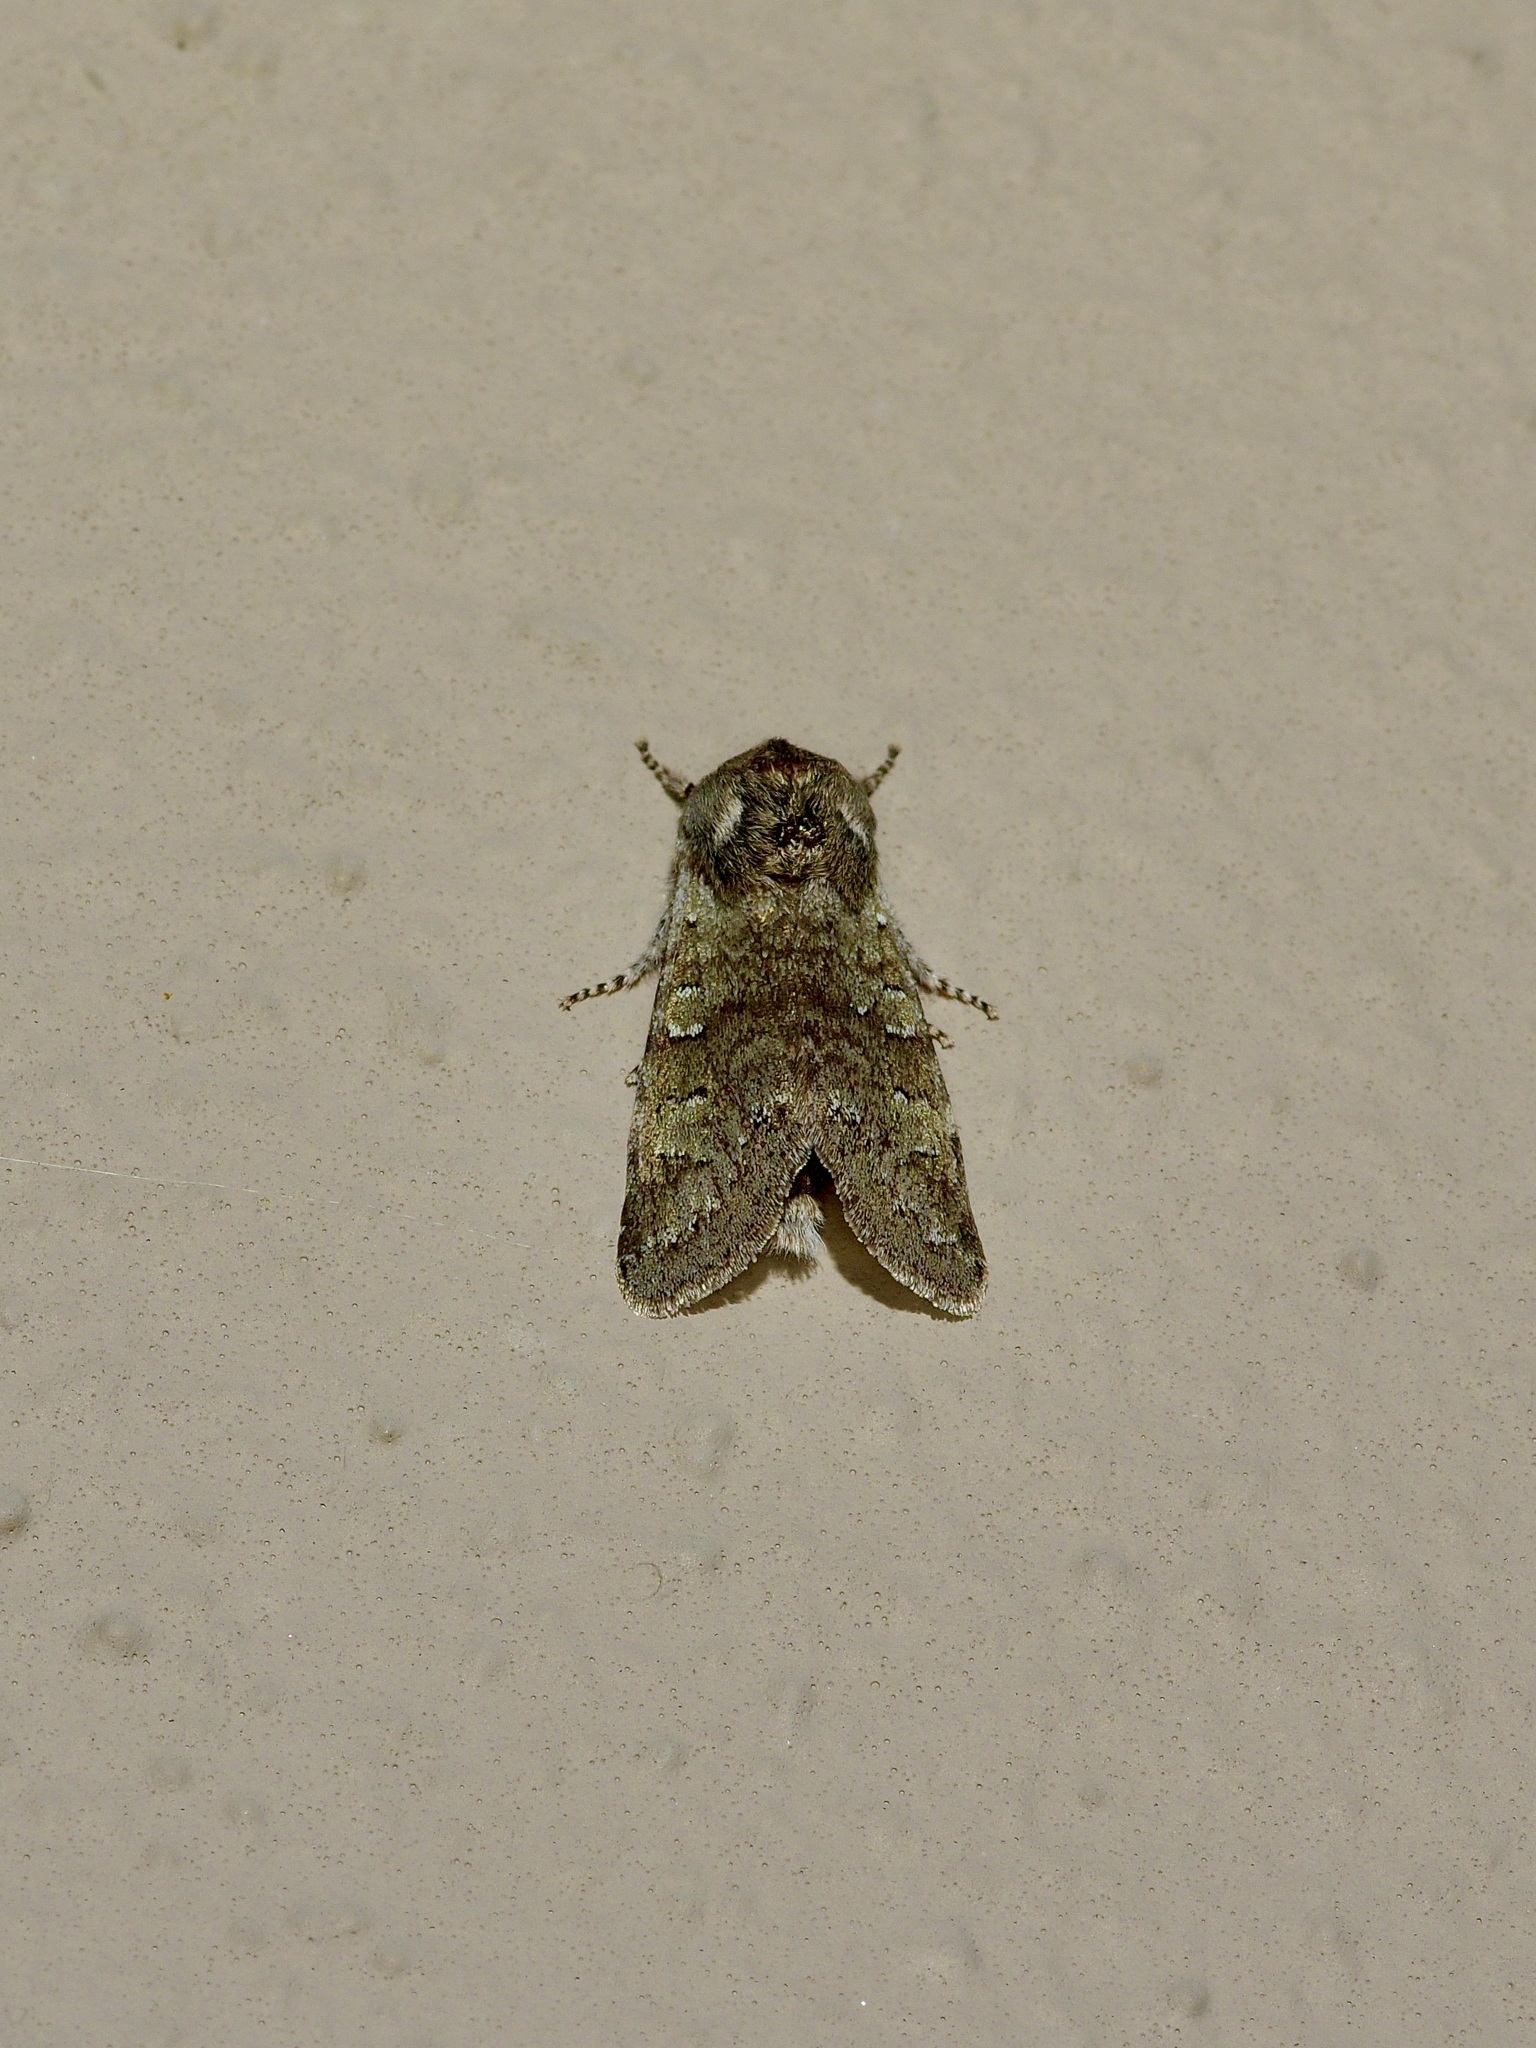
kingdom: Animalia
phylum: Arthropoda
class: Insecta
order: Lepidoptera
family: Noctuidae
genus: Psaphida
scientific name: Psaphida rolandi
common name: Roland's sallow
